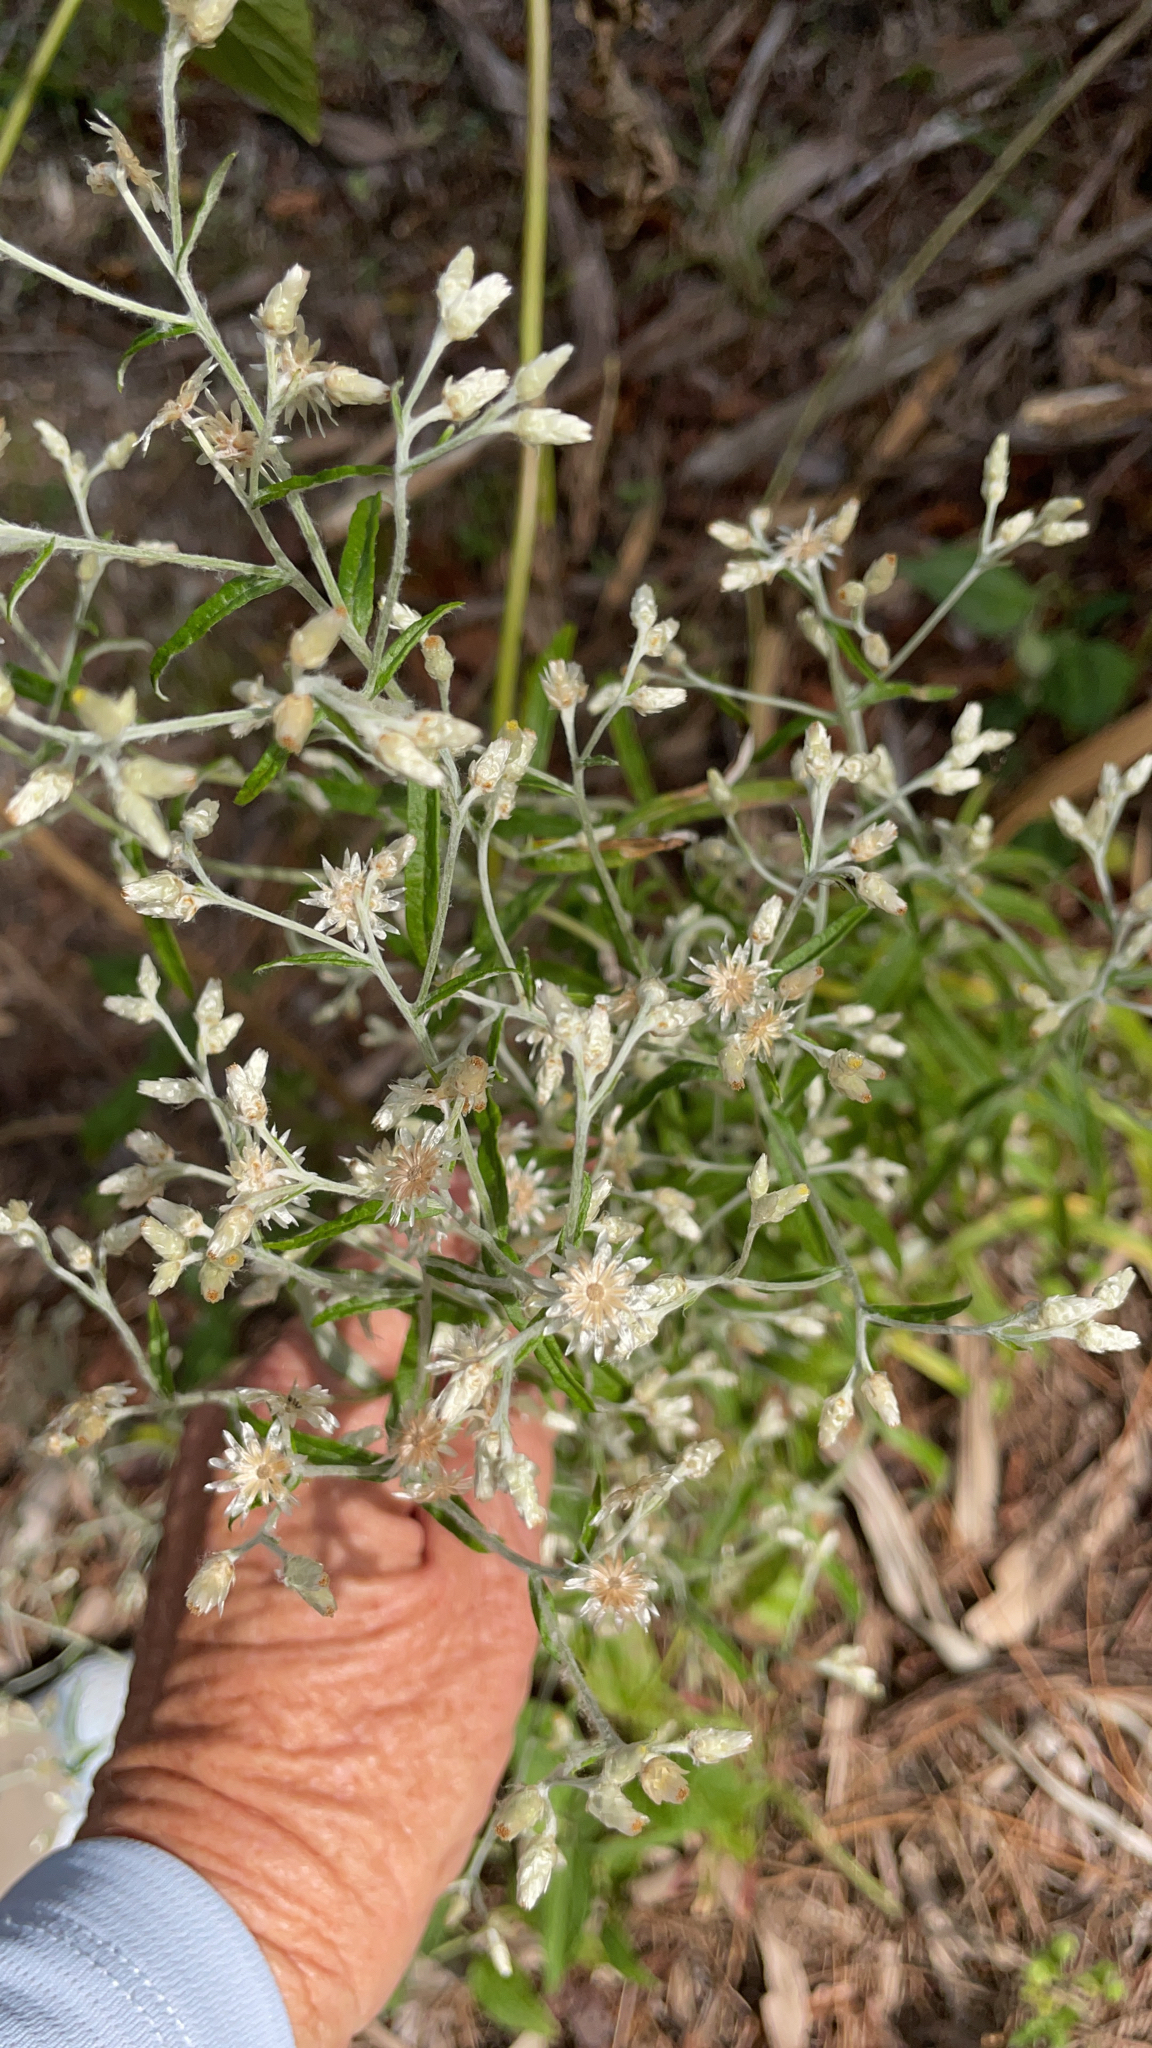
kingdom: Plantae
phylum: Tracheophyta
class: Magnoliopsida
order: Asterales
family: Asteraceae
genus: Pseudognaphalium
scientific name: Pseudognaphalium obtusifolium
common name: Eastern rabbit-tobacco
